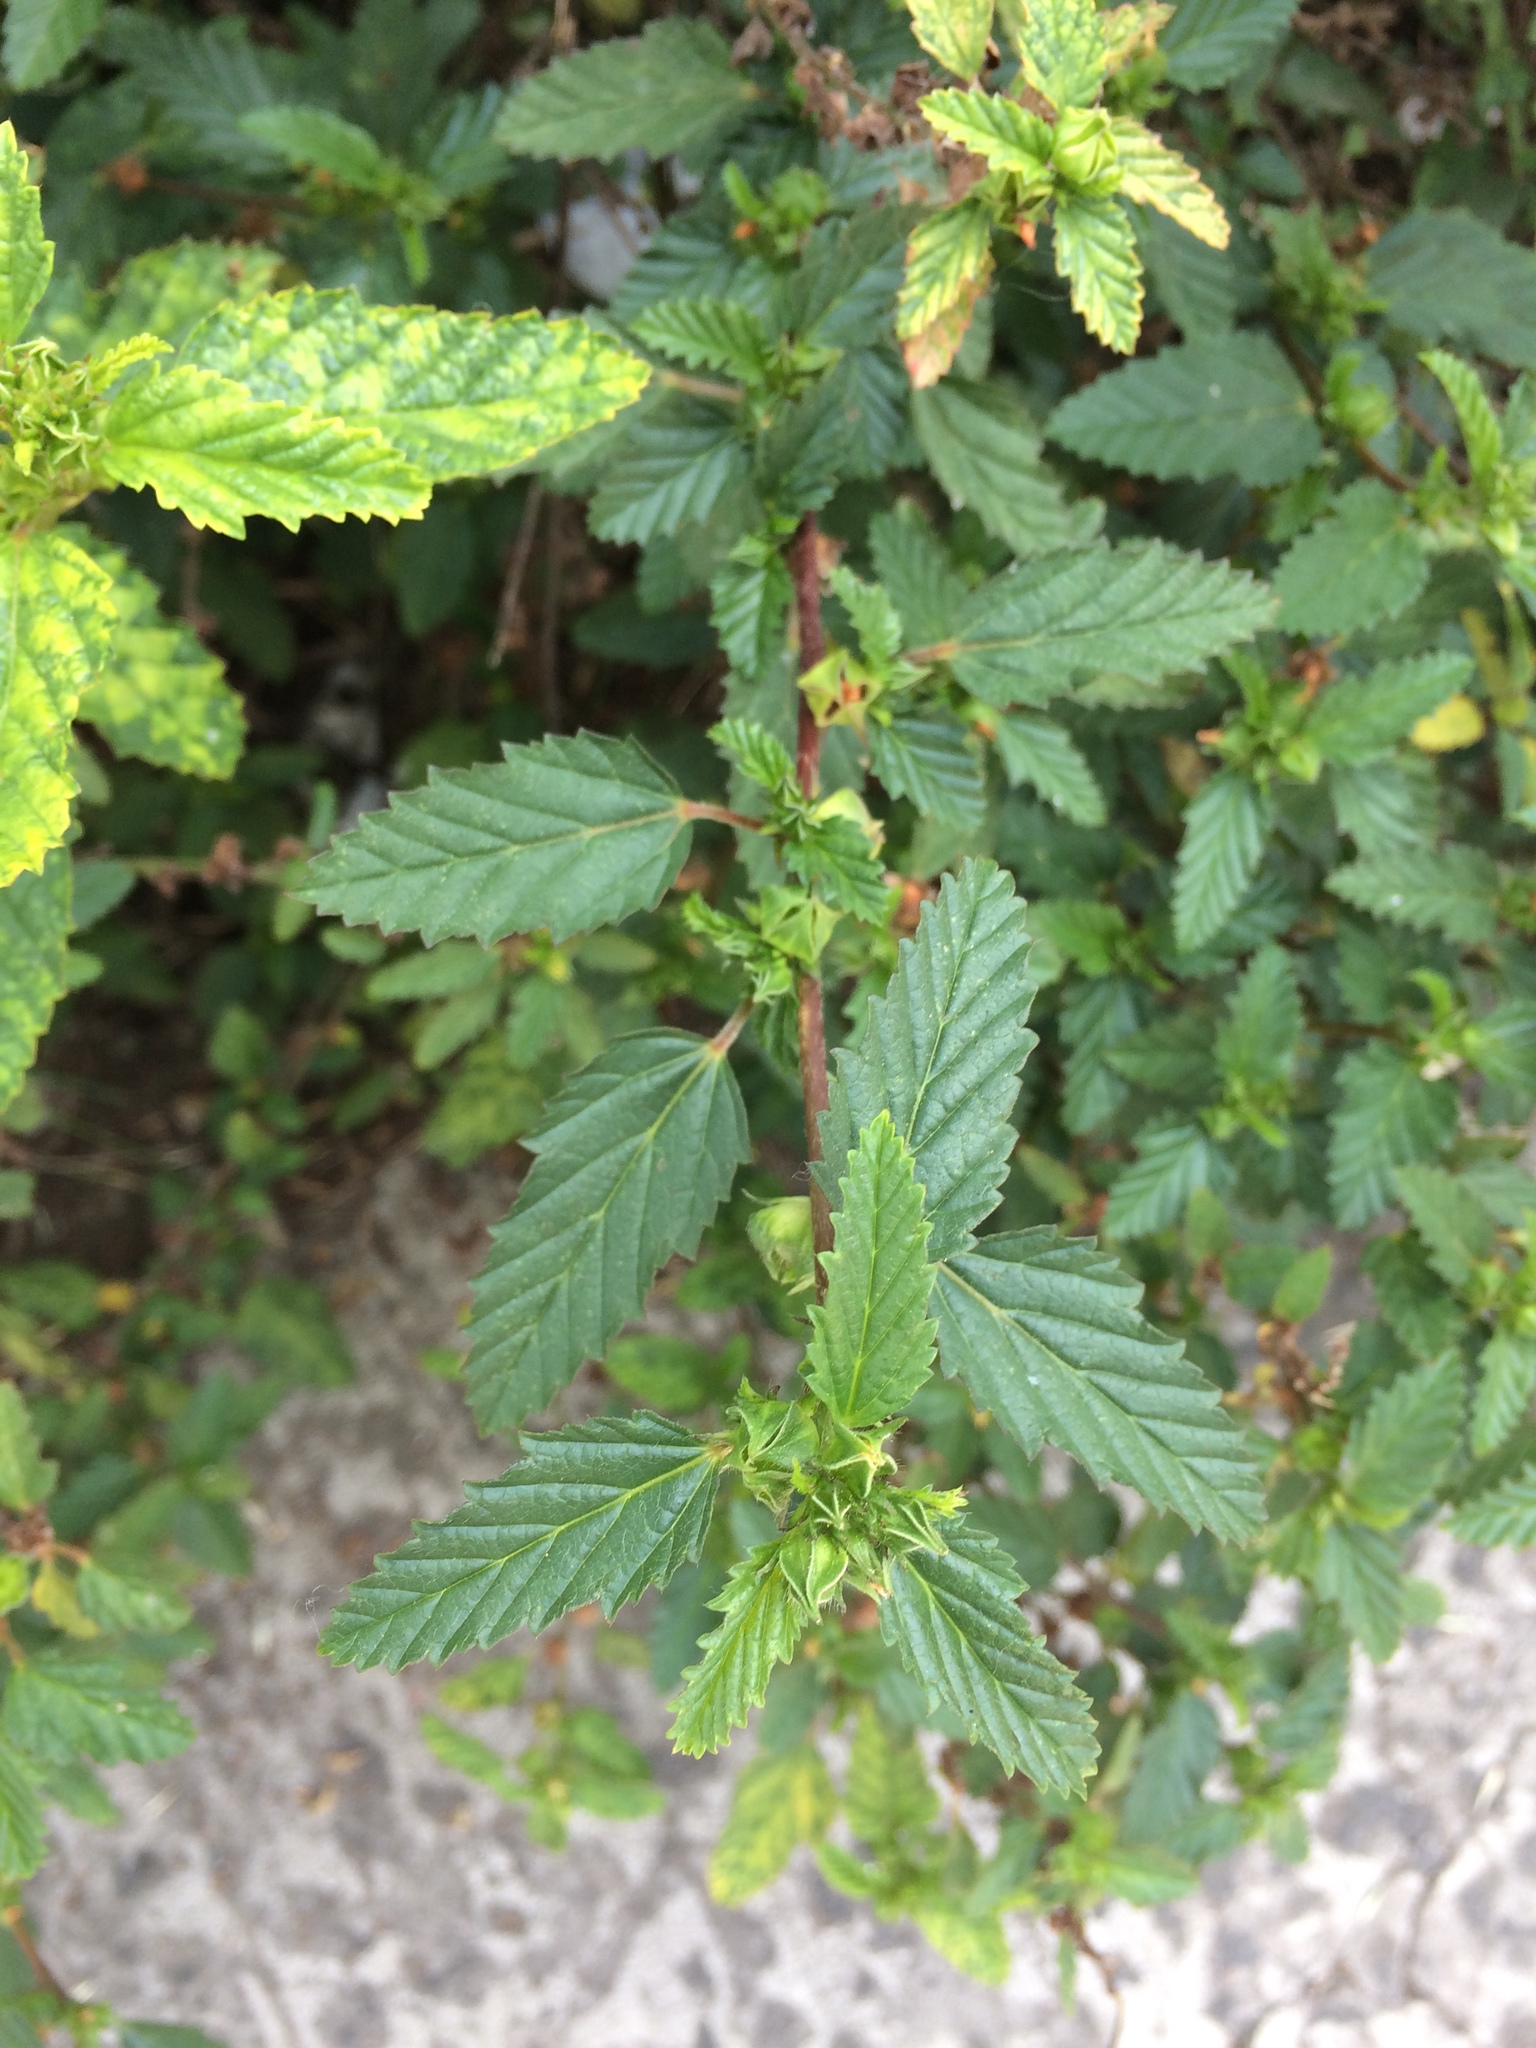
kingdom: Plantae
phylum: Tracheophyta
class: Magnoliopsida
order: Malvales
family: Malvaceae
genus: Malvastrum
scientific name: Malvastrum coromandelianum
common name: Threelobe false mallow
